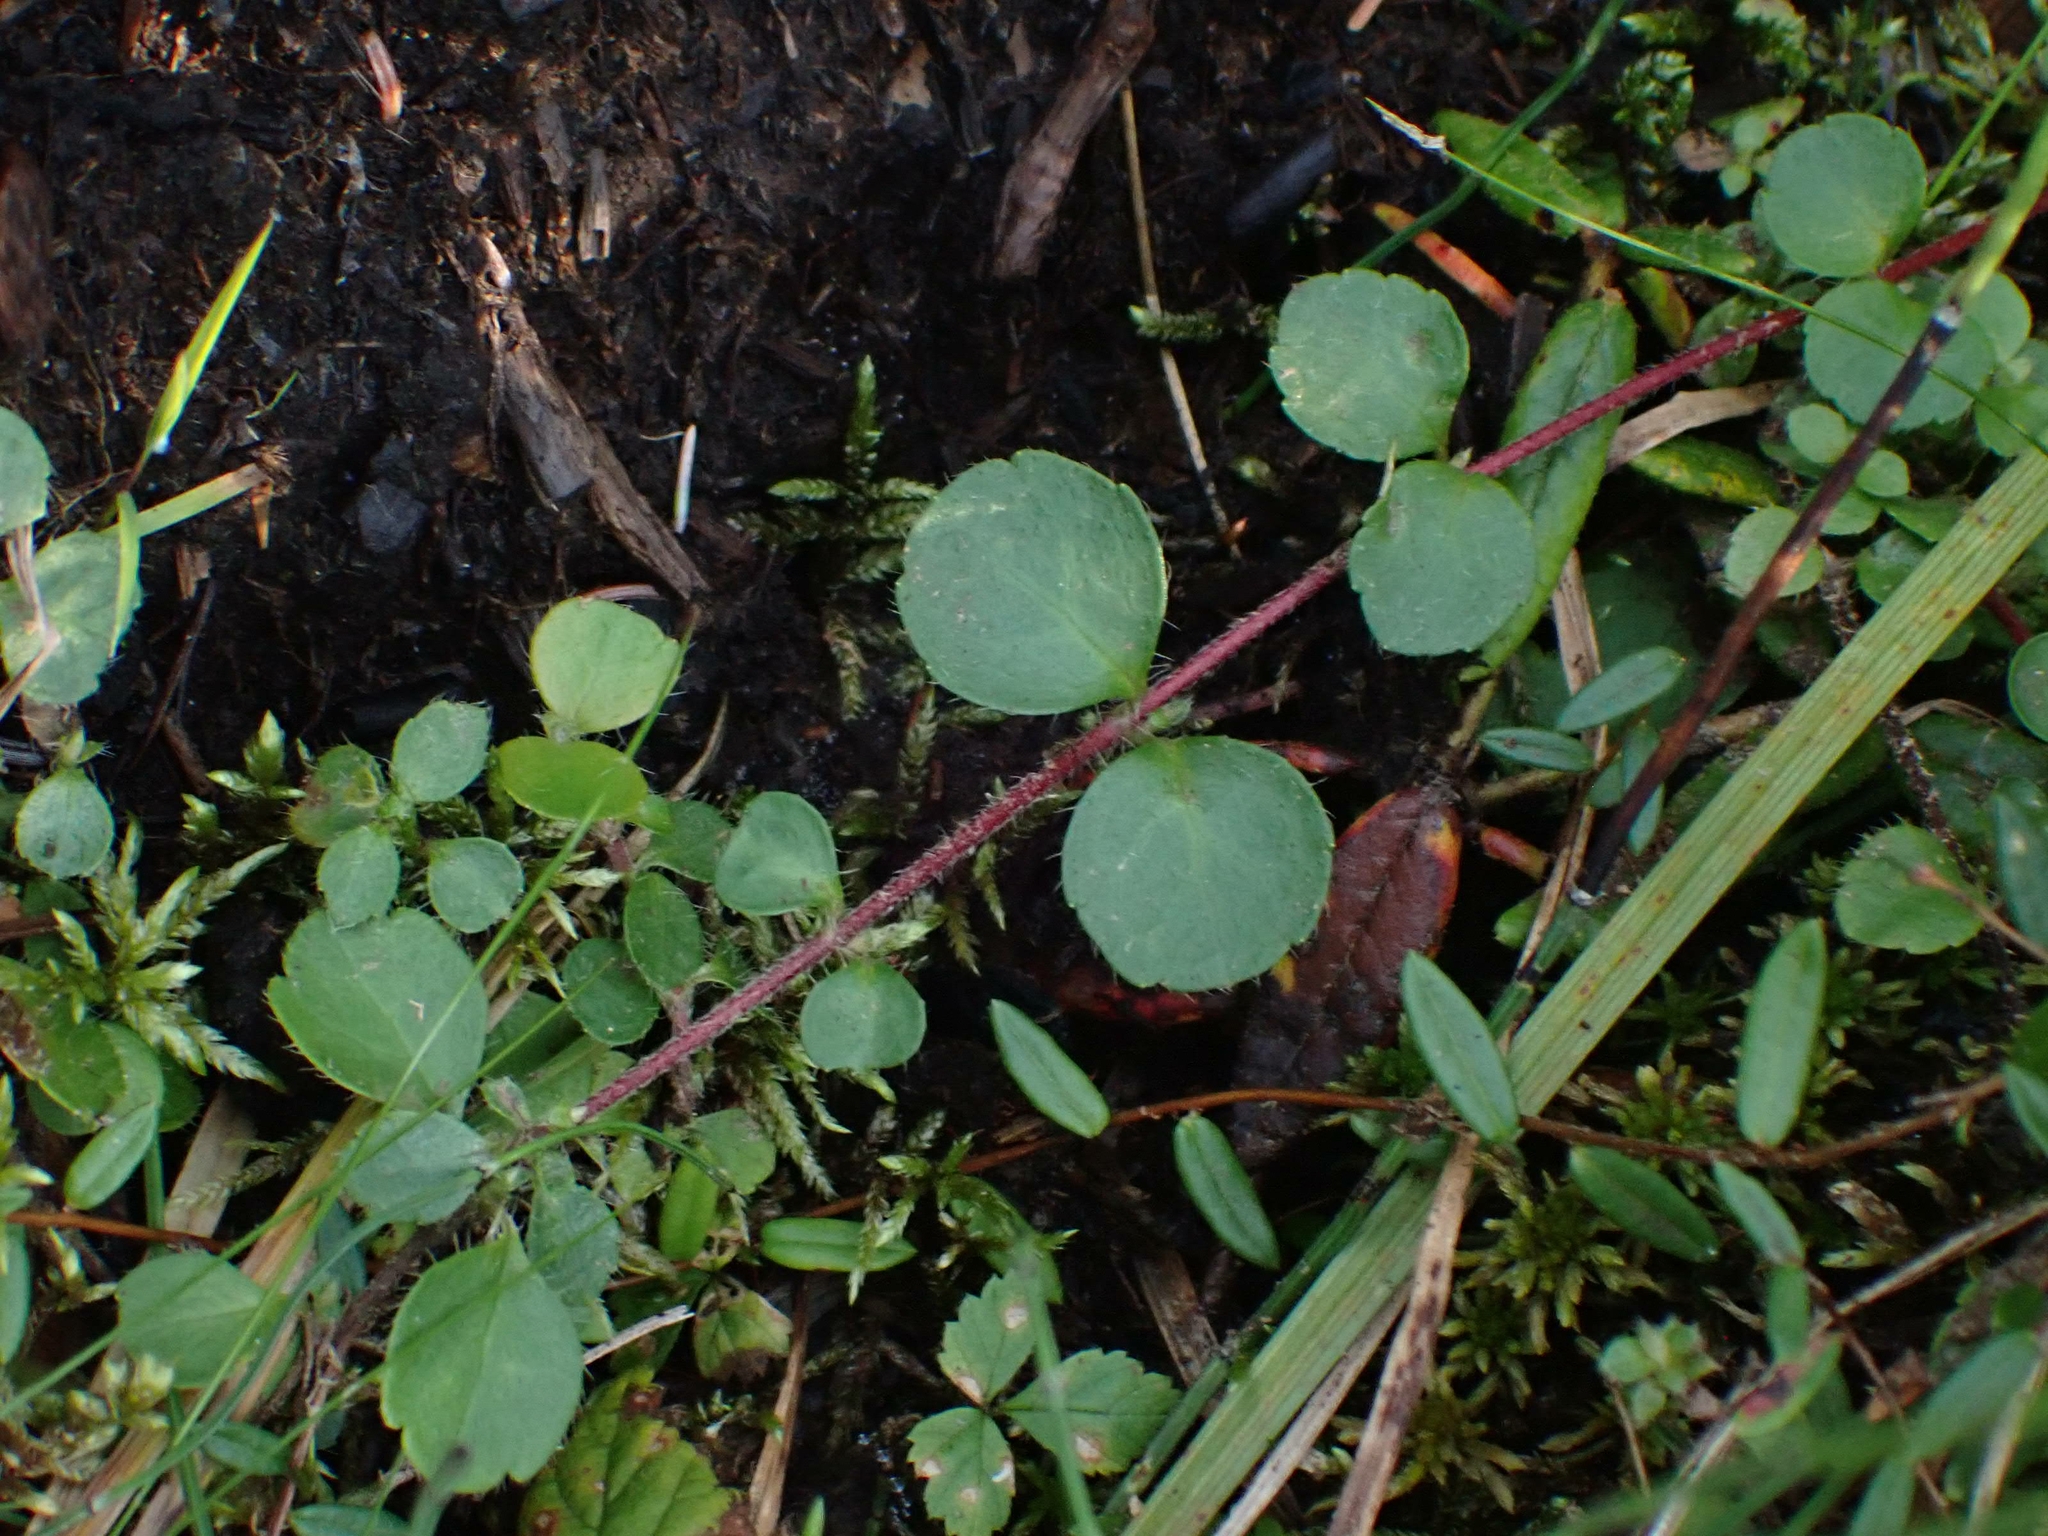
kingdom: Plantae
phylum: Tracheophyta
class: Magnoliopsida
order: Dipsacales
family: Caprifoliaceae
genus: Linnaea
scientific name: Linnaea borealis
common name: Twinflower
